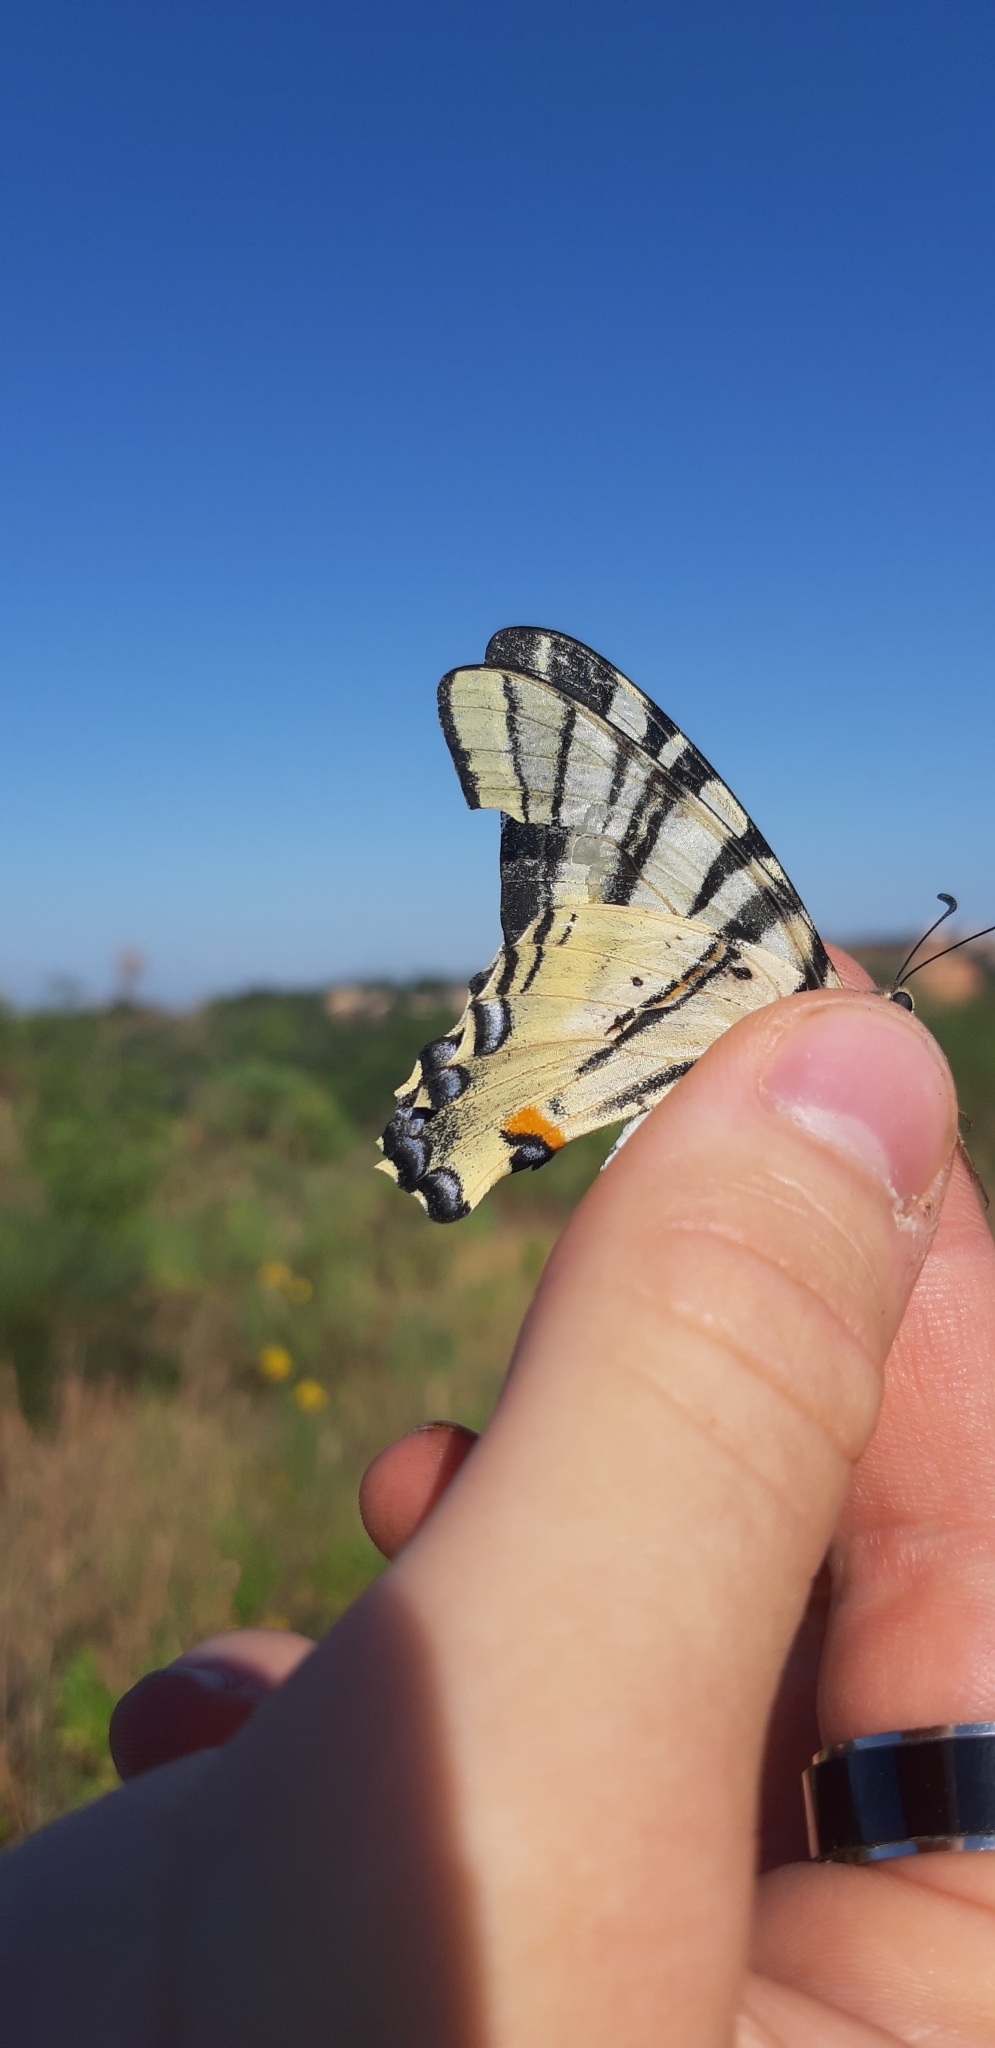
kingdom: Animalia
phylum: Arthropoda
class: Insecta
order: Lepidoptera
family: Papilionidae
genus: Iphiclides
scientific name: Iphiclides podalirius
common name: Scarce swallowtail
